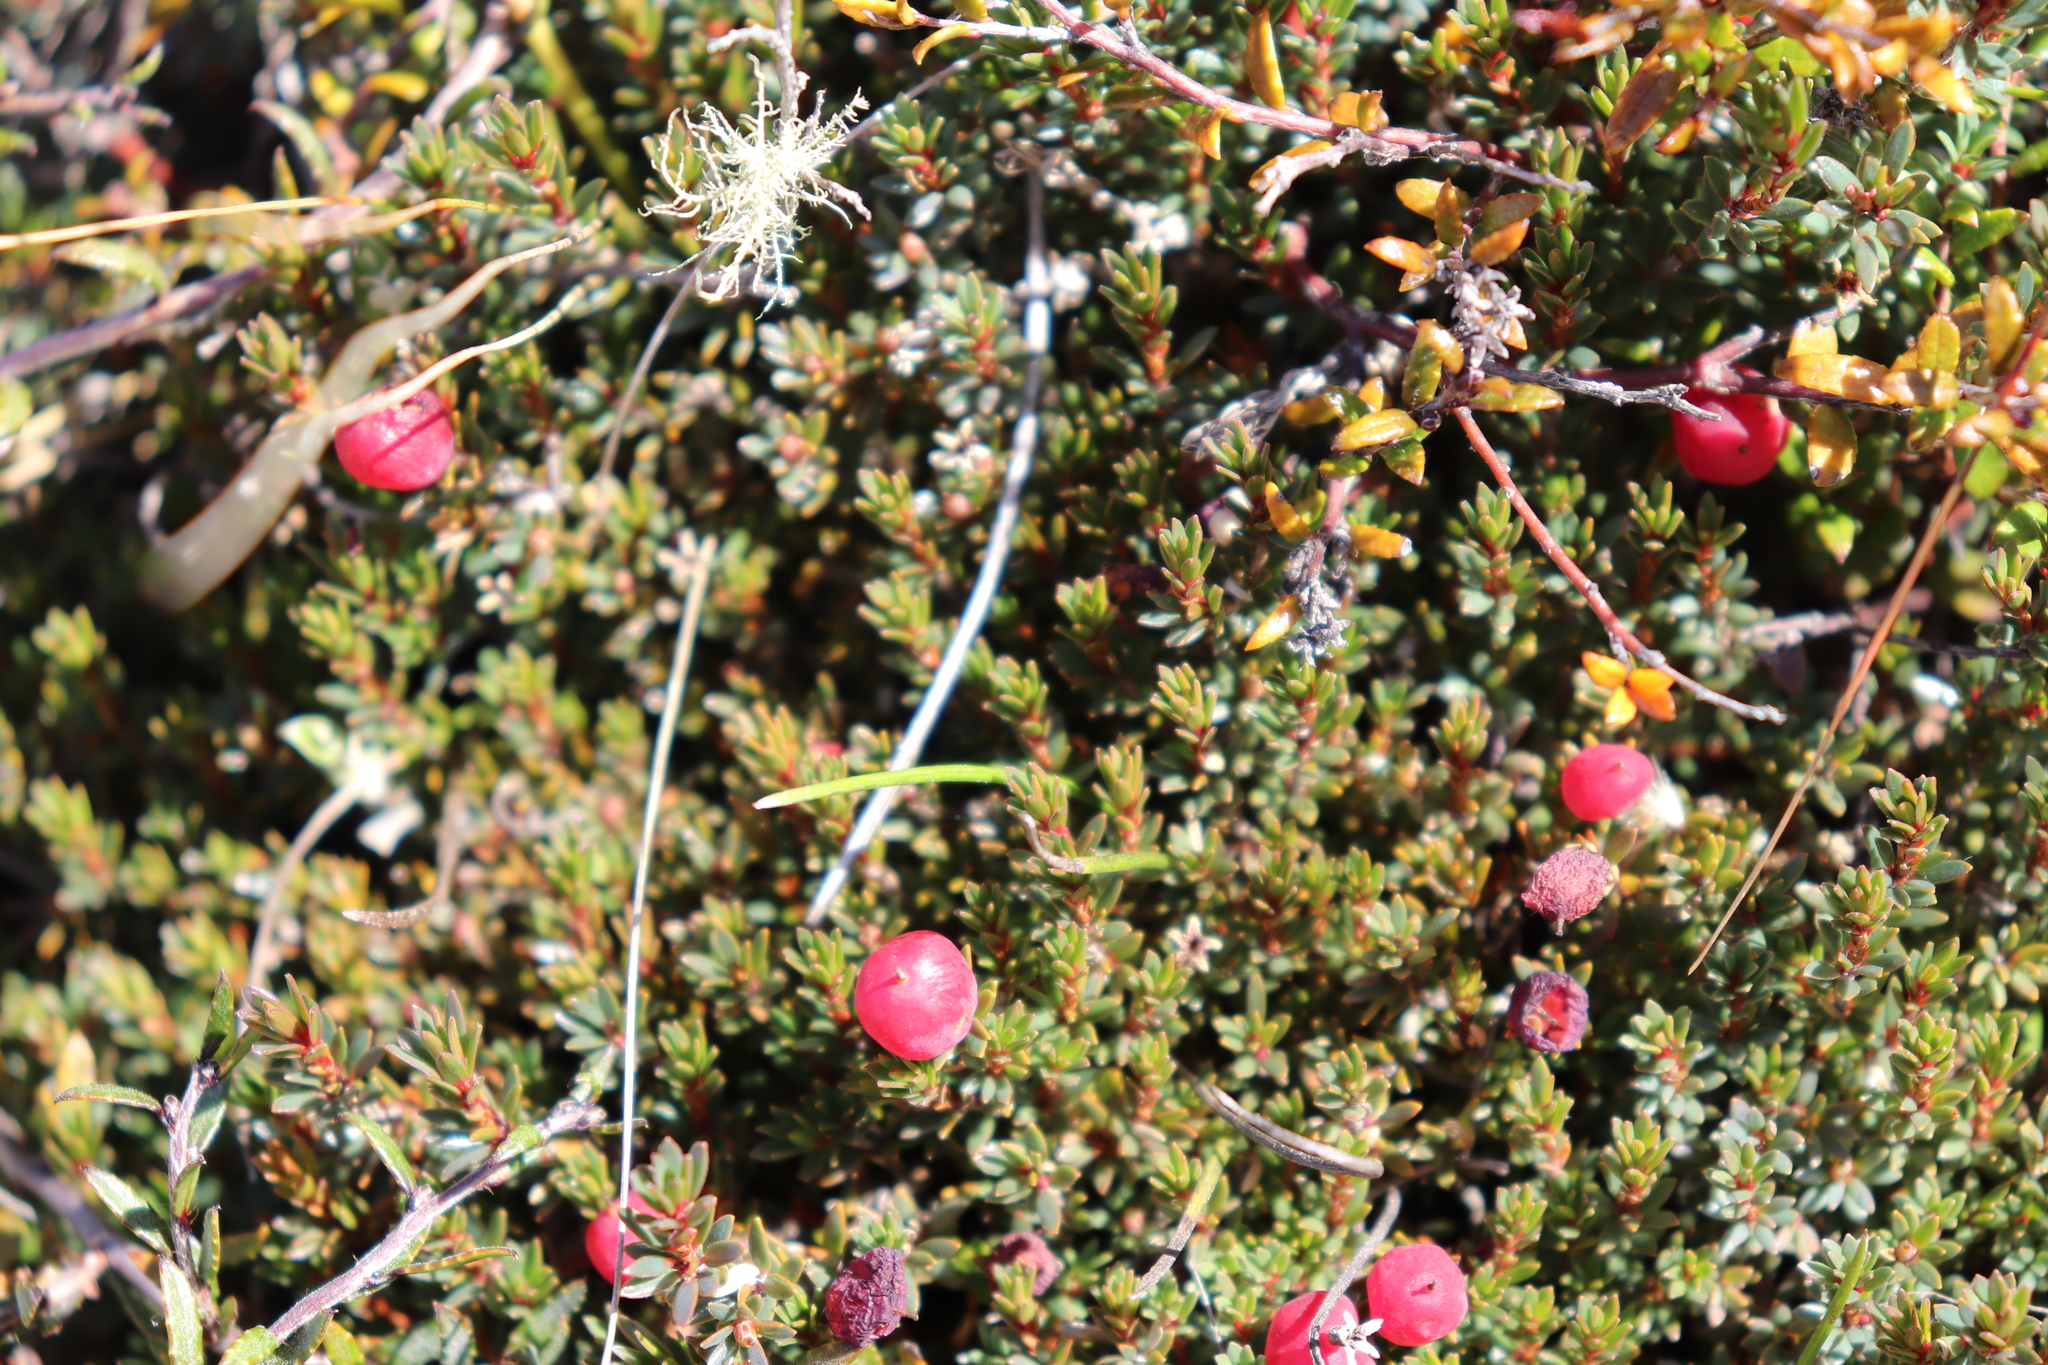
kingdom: Plantae
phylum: Tracheophyta
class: Magnoliopsida
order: Ericales
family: Ericaceae
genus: Pentachondra
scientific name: Pentachondra pumila
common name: Carpet-heath
